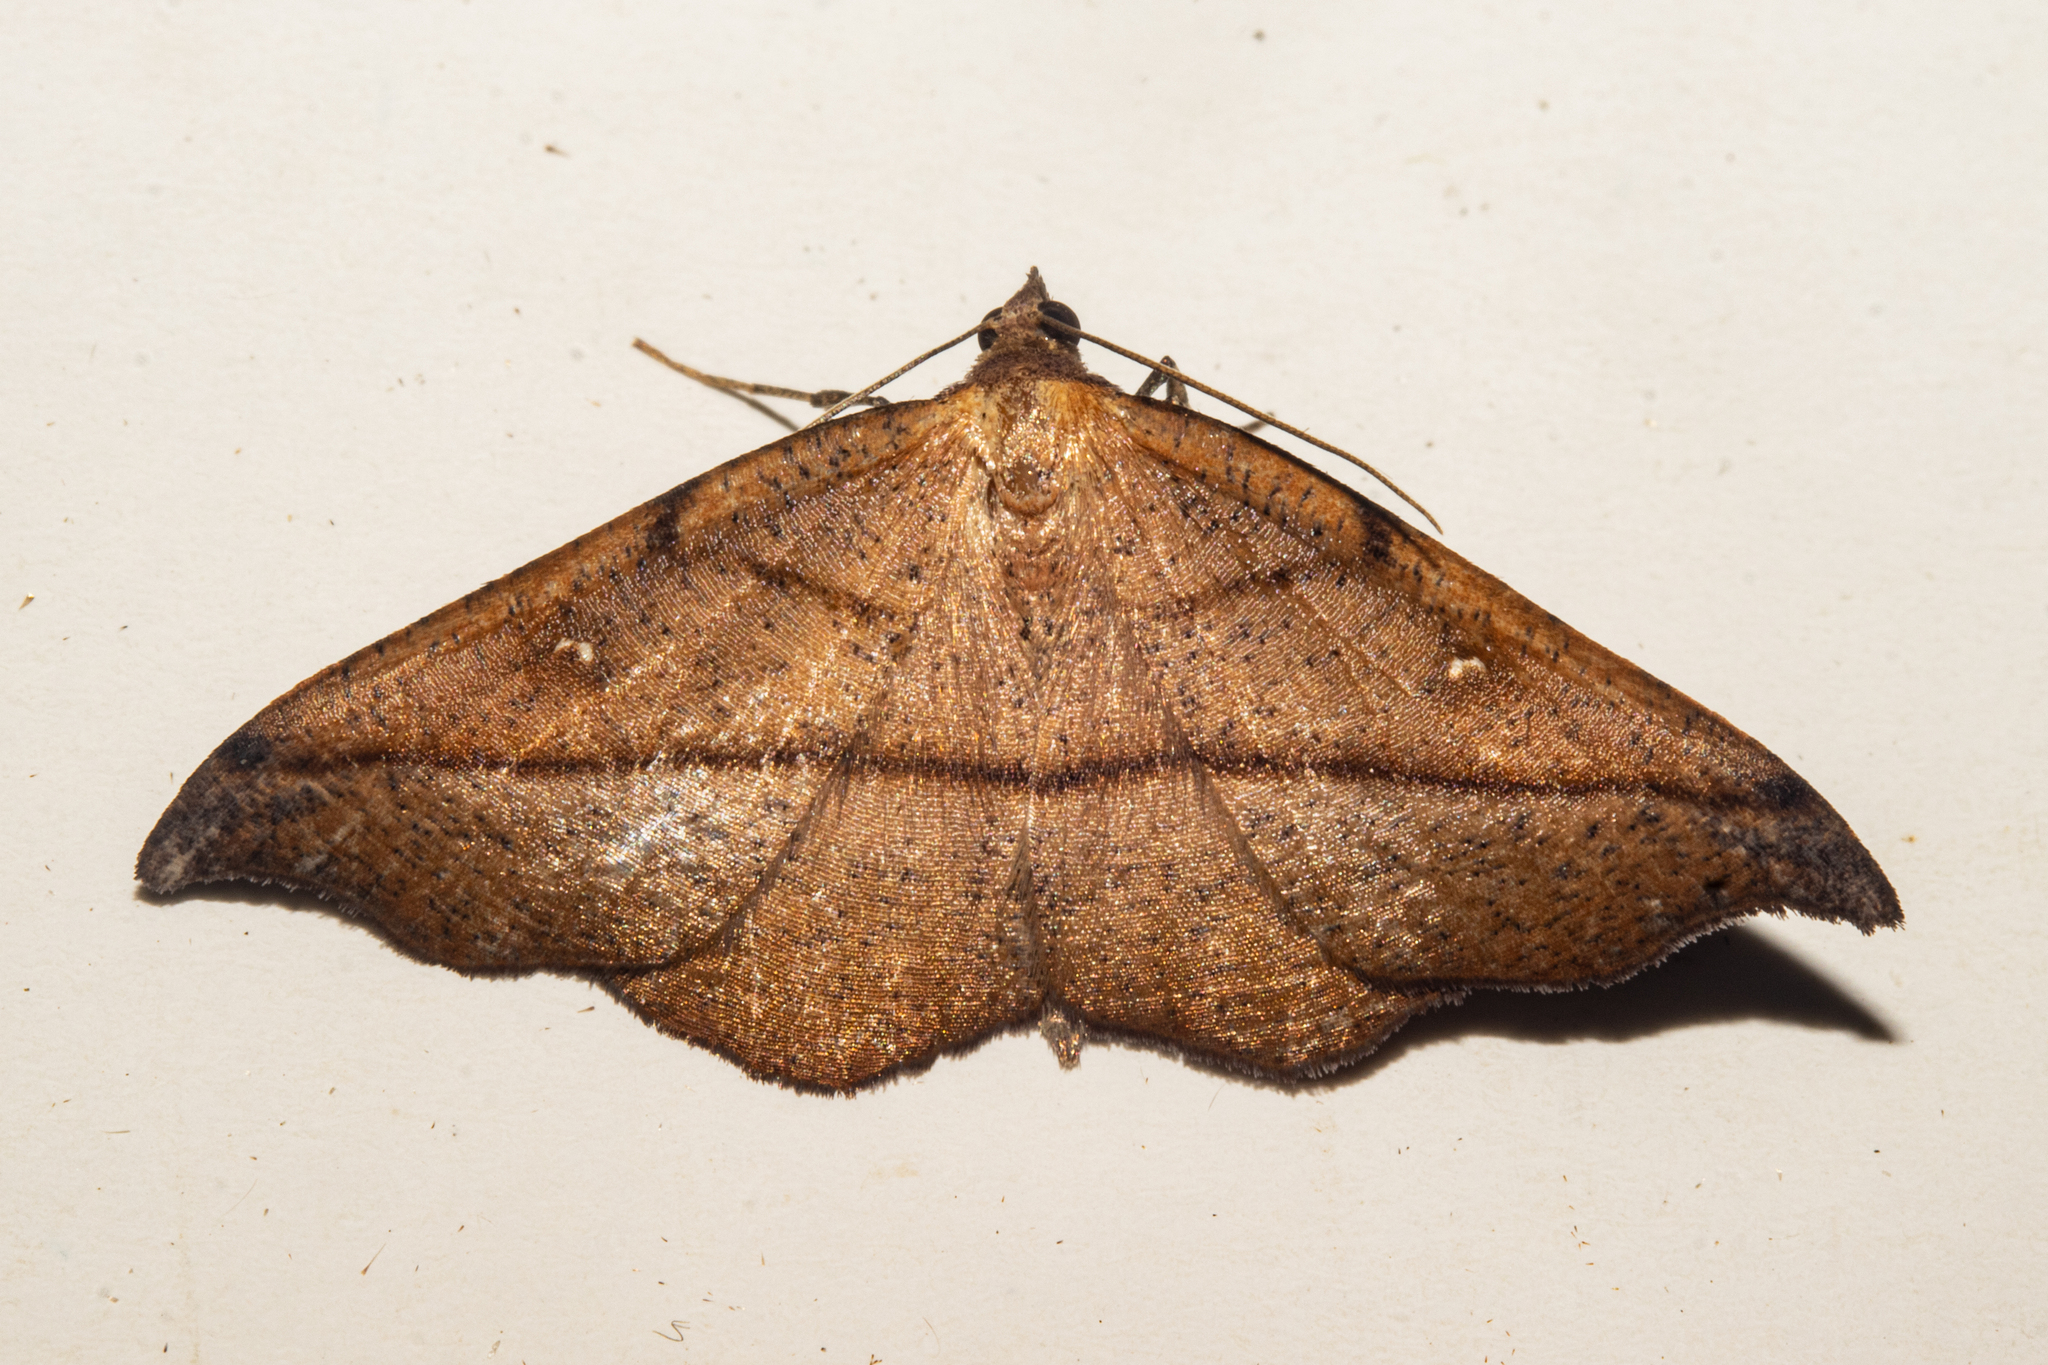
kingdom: Animalia
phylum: Arthropoda
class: Insecta
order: Lepidoptera
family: Geometridae
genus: Sarisa
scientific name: Sarisa muriferata
